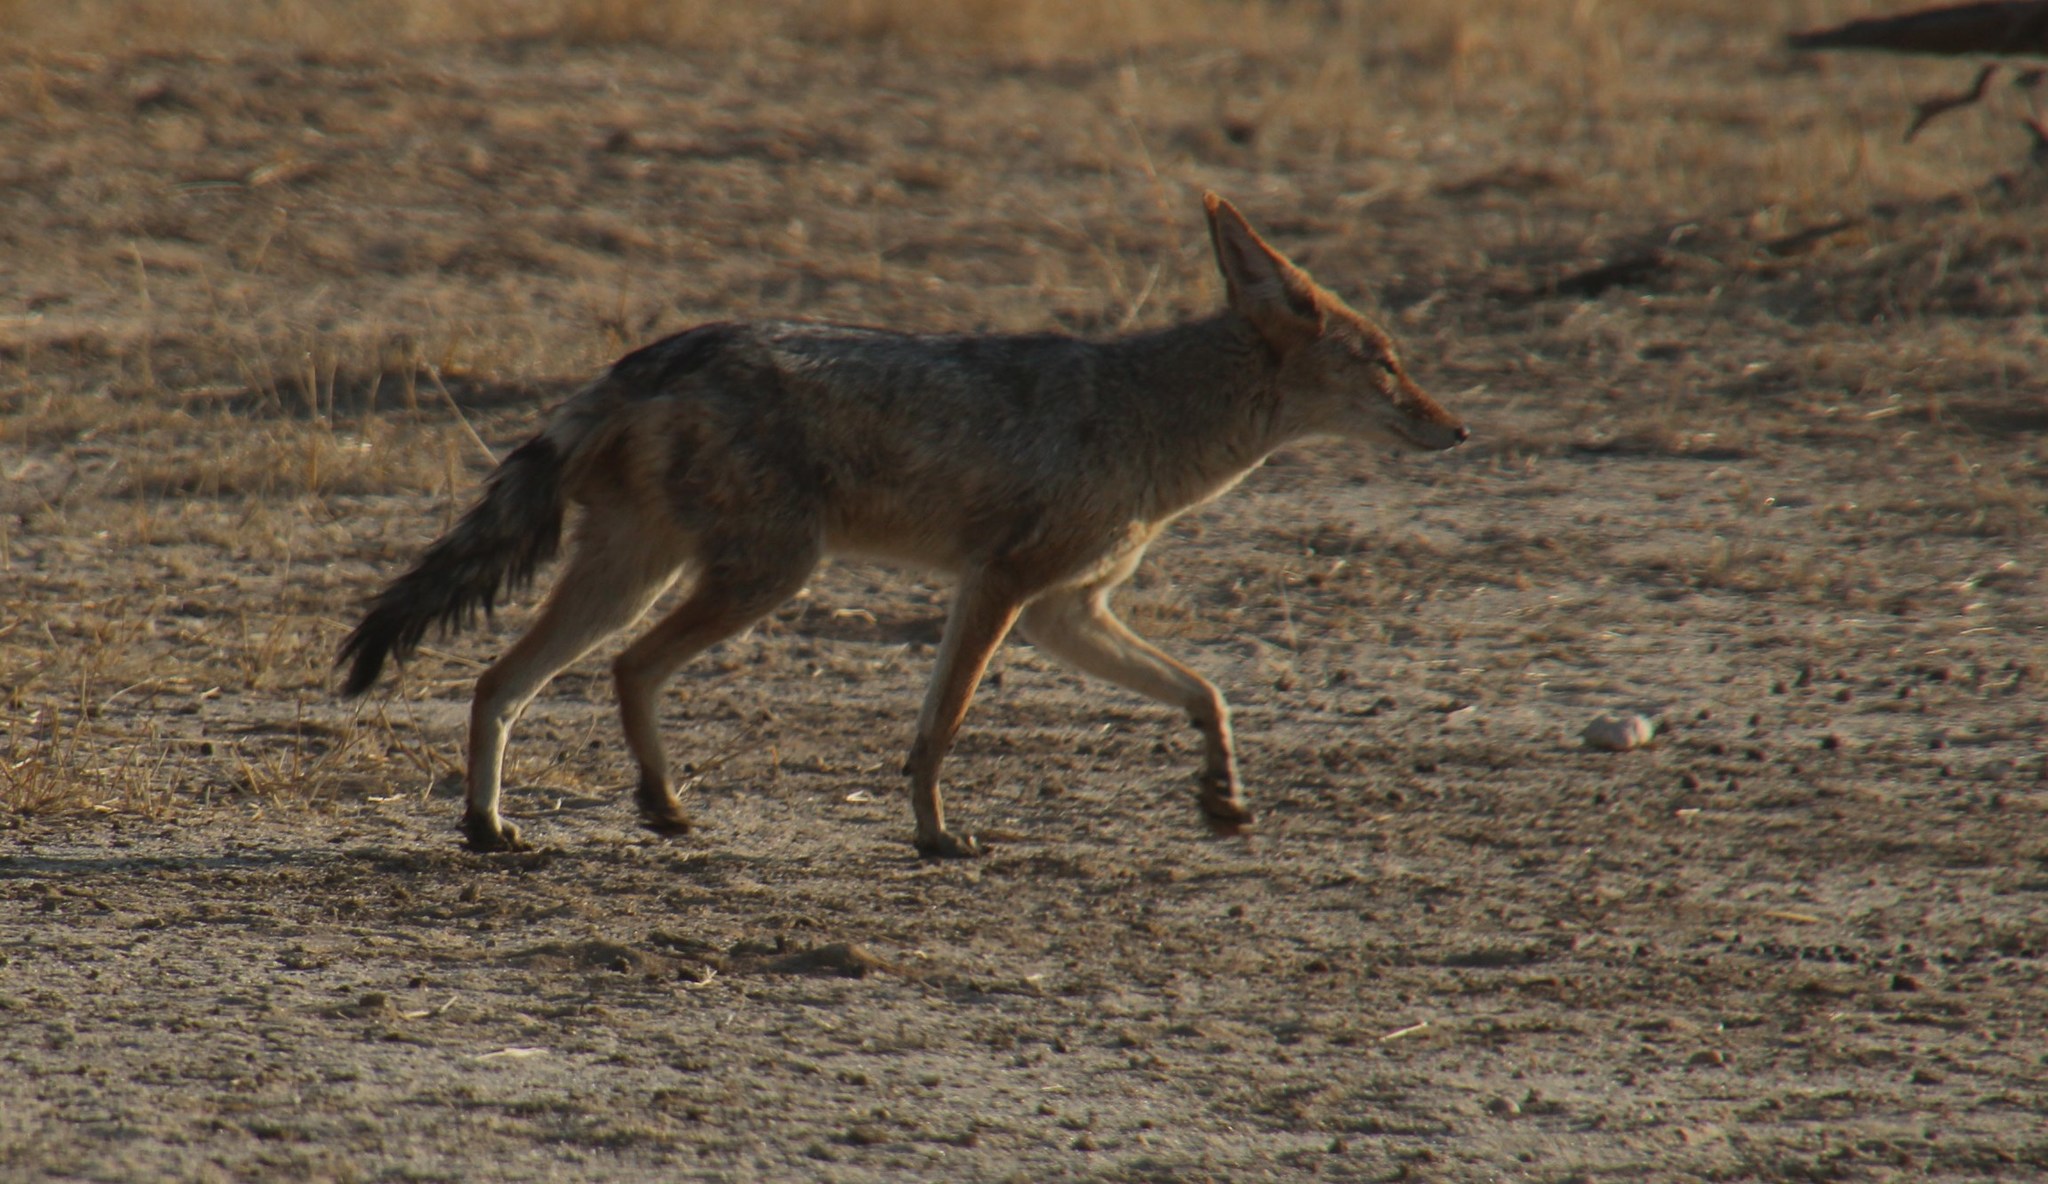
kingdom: Animalia
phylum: Chordata
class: Mammalia
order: Carnivora
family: Canidae
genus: Lupulella
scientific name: Lupulella
